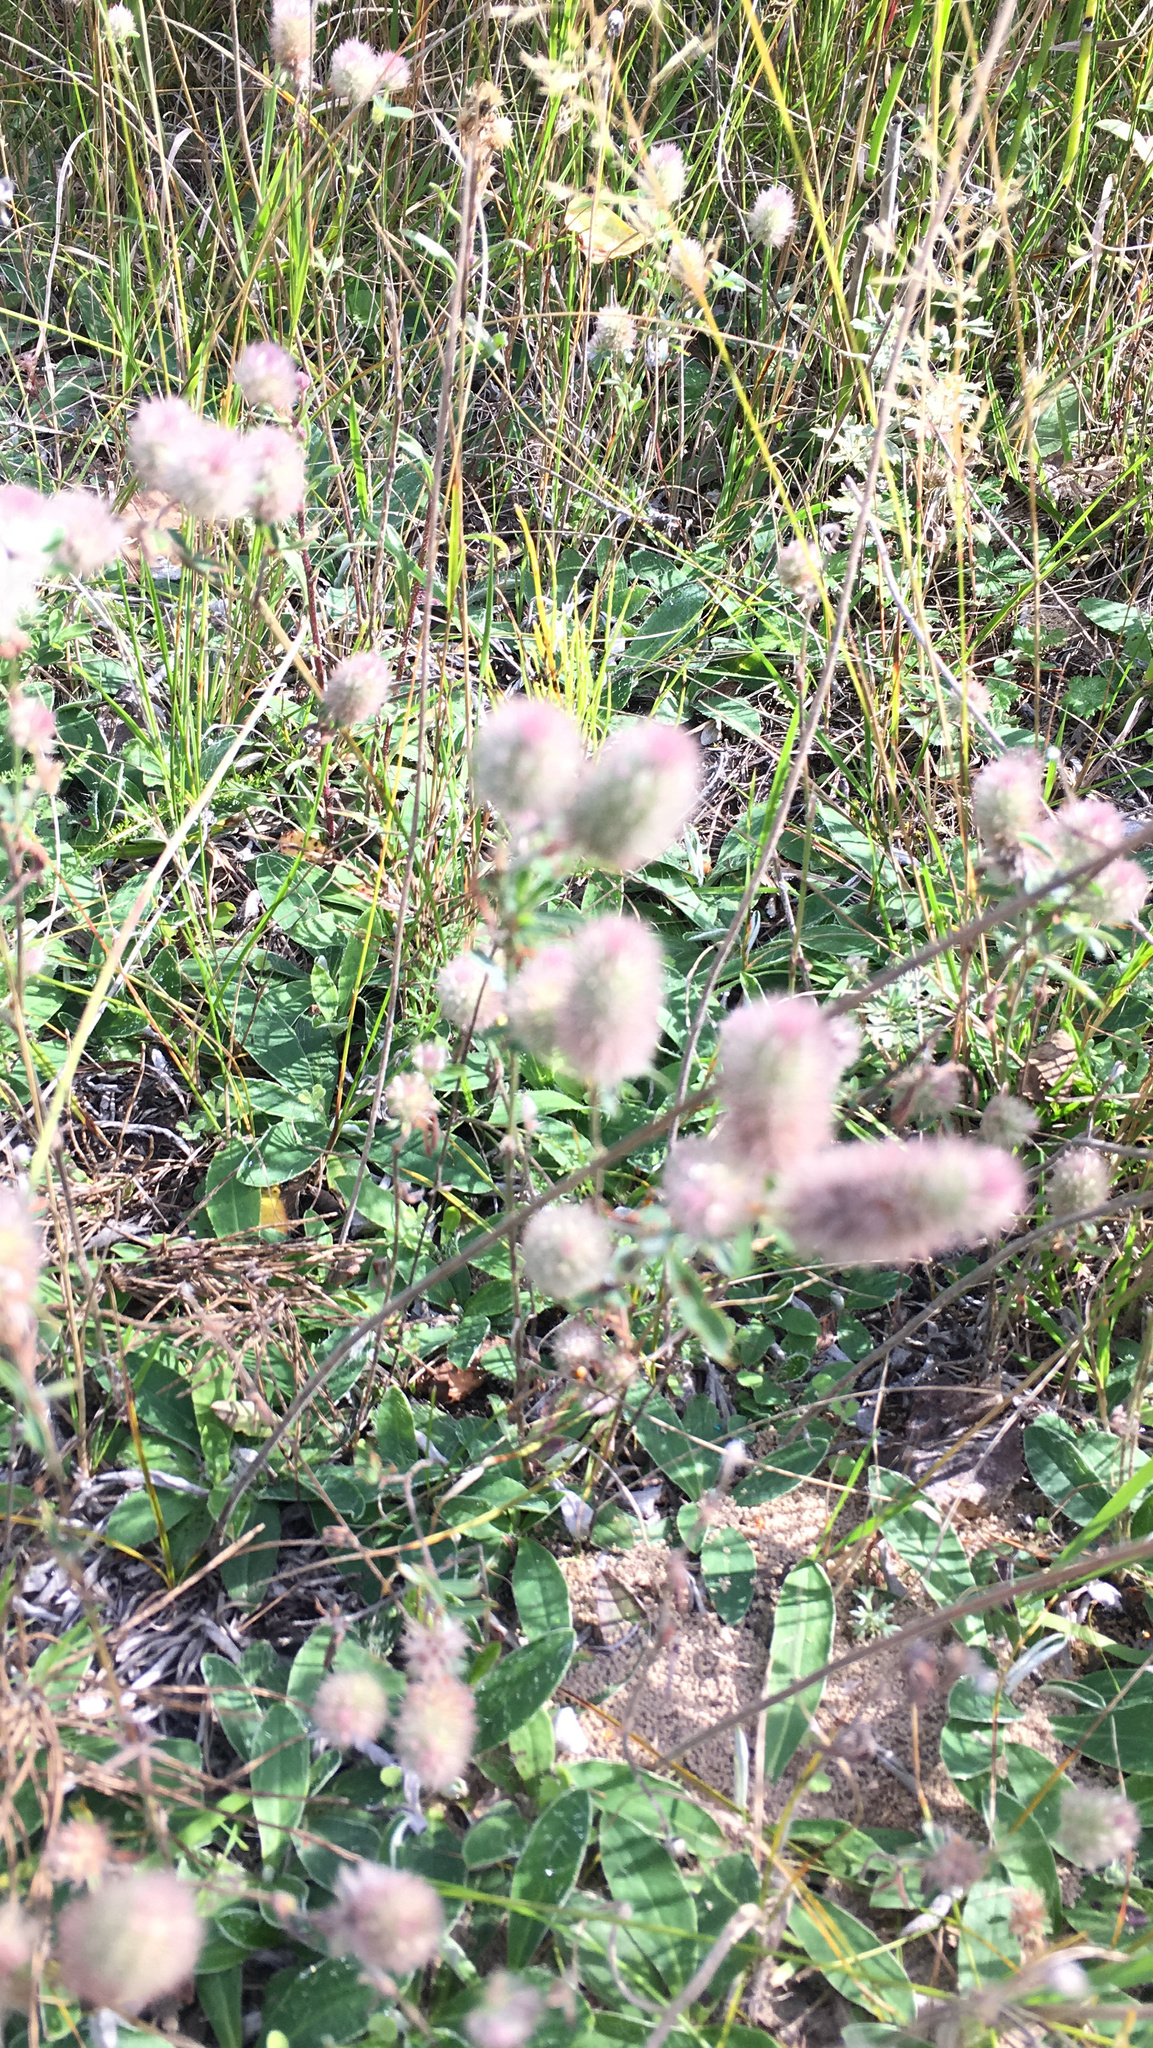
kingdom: Plantae
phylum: Tracheophyta
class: Magnoliopsida
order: Fabales
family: Fabaceae
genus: Trifolium
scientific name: Trifolium arvense
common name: Hare's-foot clover
